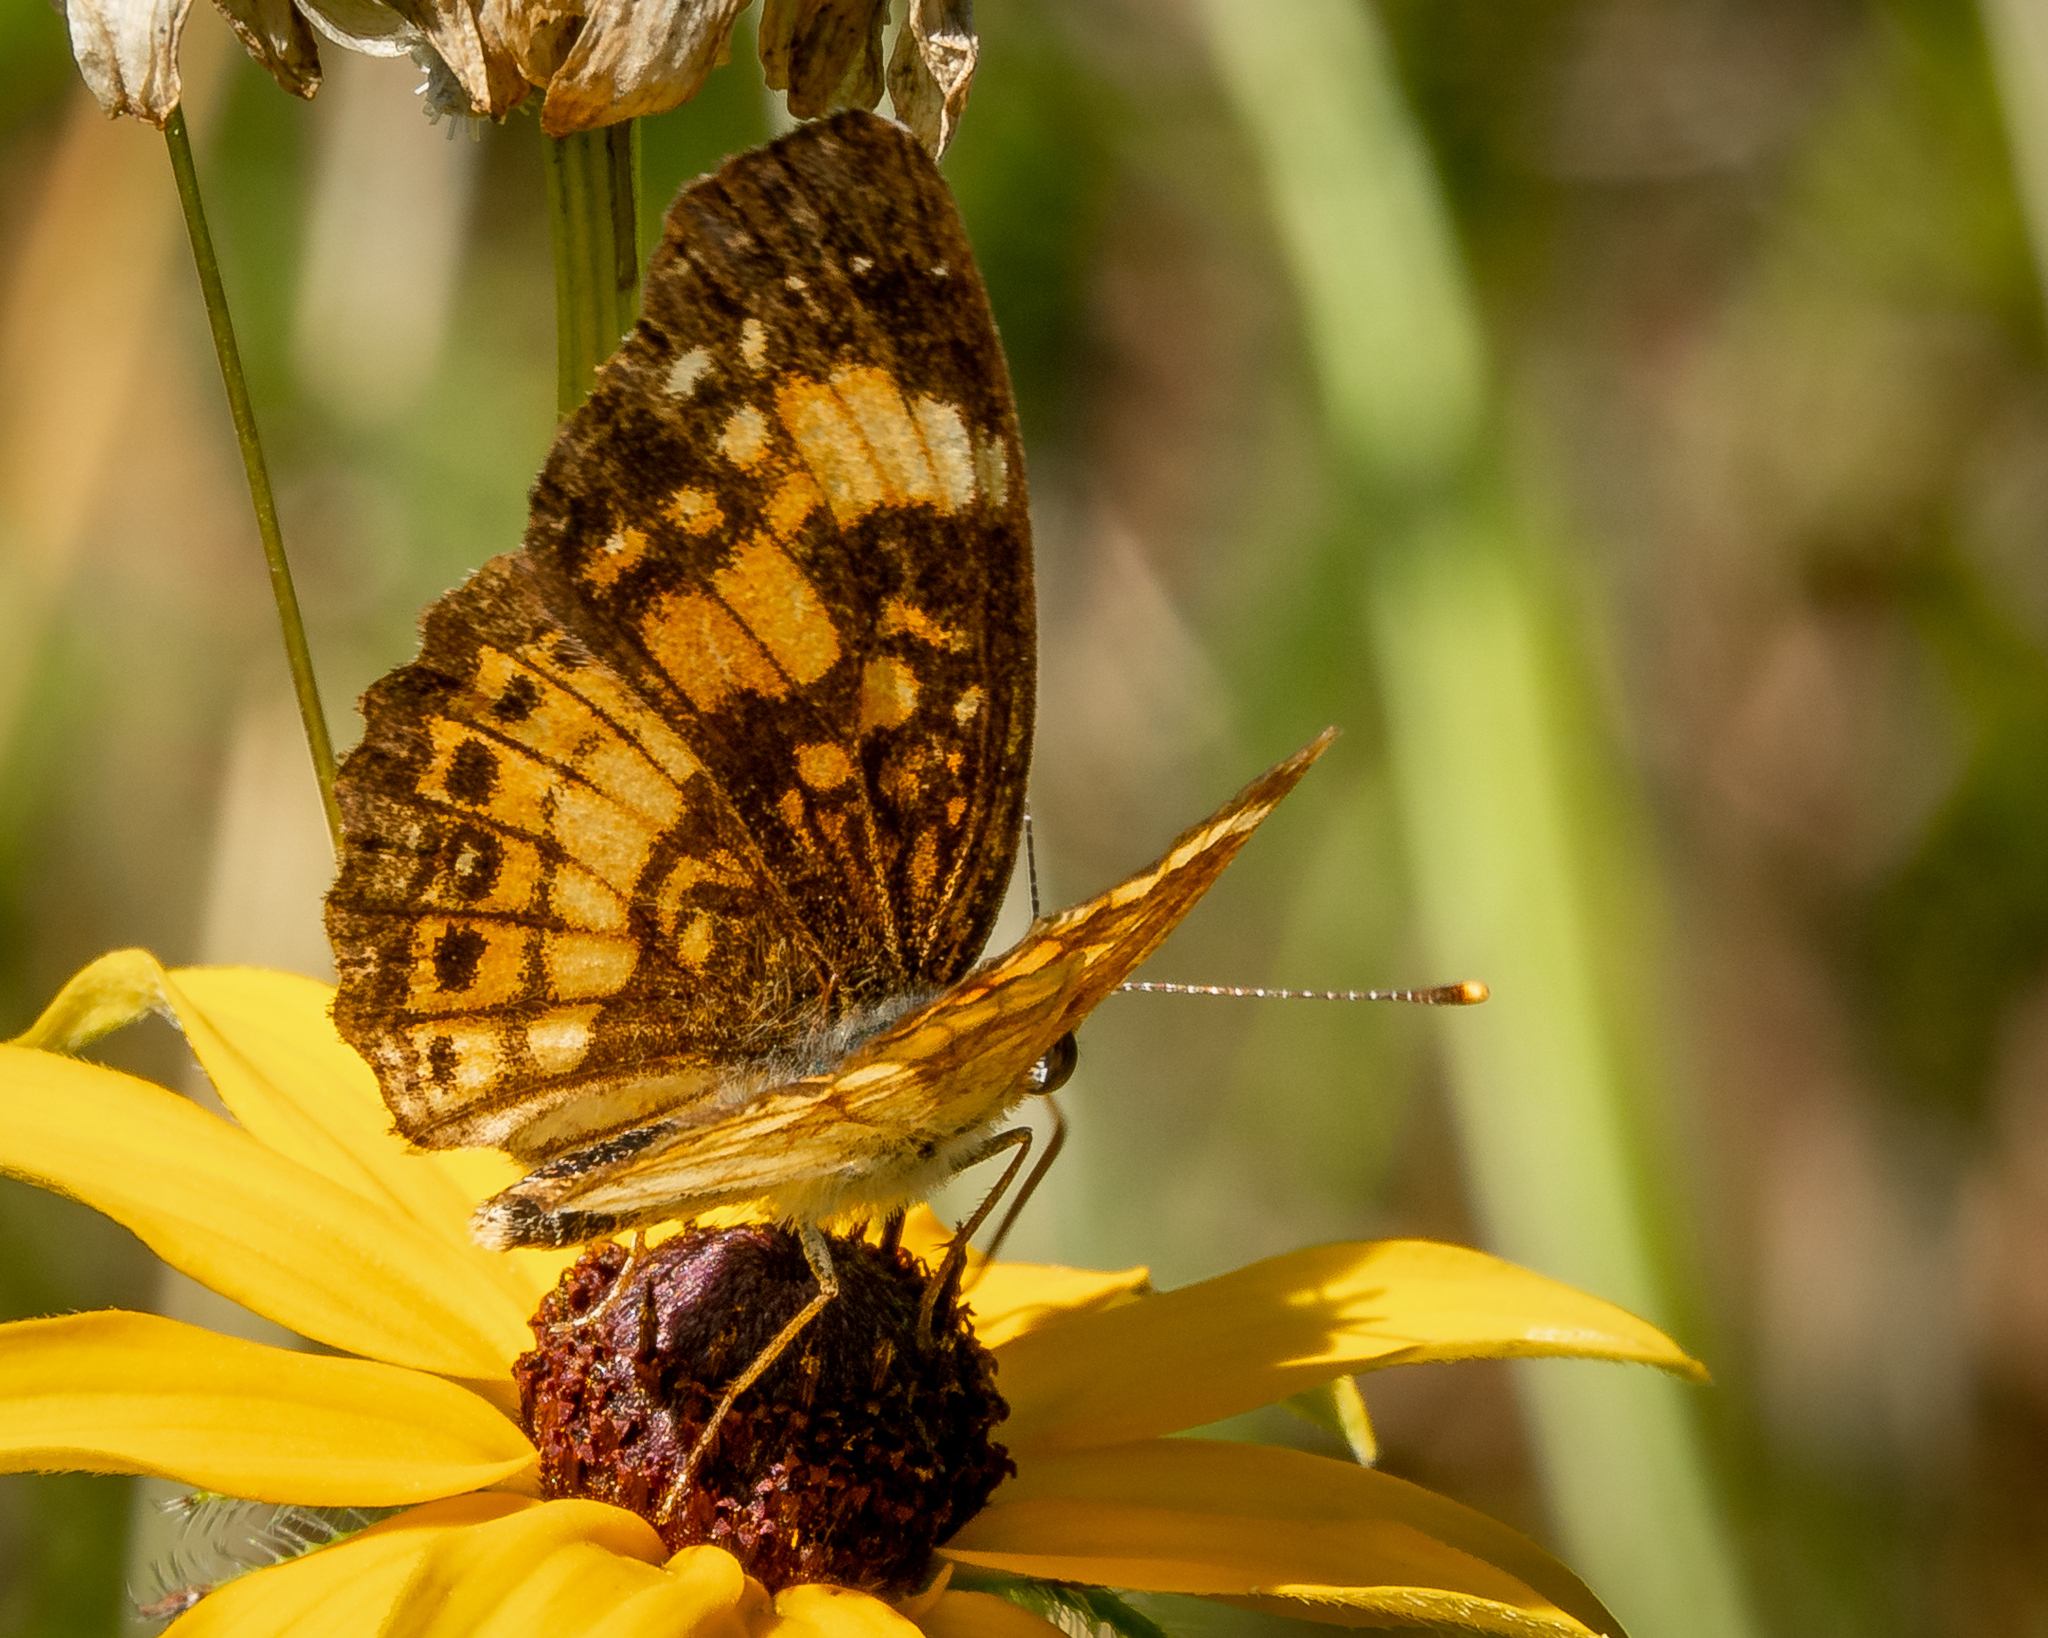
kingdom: Animalia
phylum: Arthropoda
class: Insecta
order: Lepidoptera
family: Nymphalidae
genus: Chlosyne
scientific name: Chlosyne nycteis
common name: Silvery checkerspot
